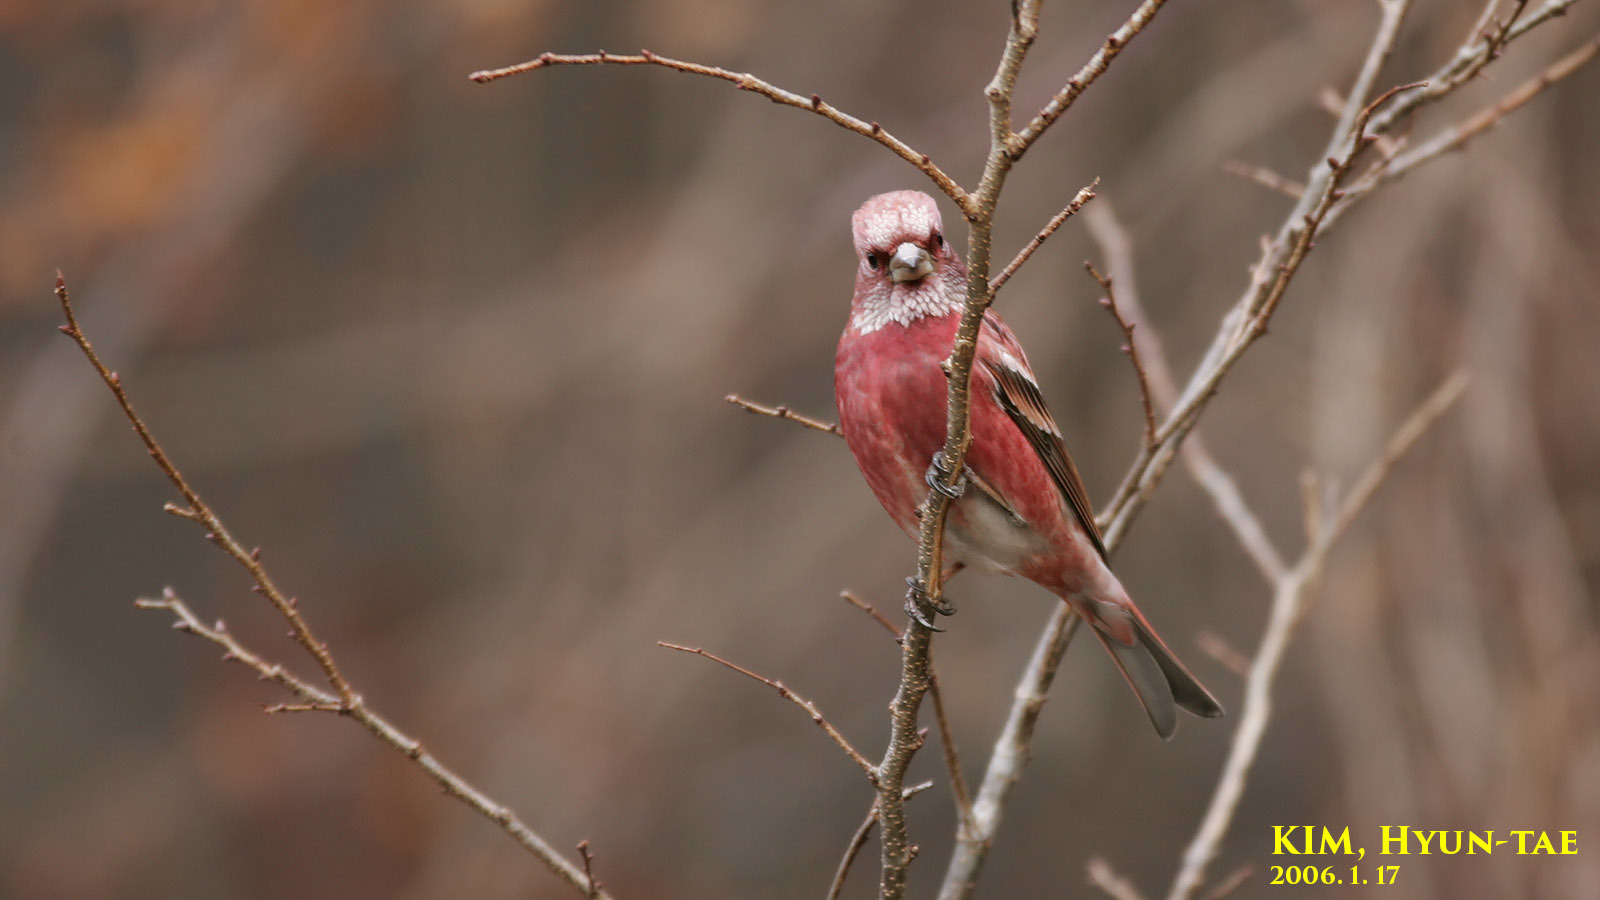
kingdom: Animalia
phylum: Chordata
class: Aves
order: Passeriformes
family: Fringillidae
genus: Carpodacus
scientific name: Carpodacus roseus
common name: Pallas's rosefinch
